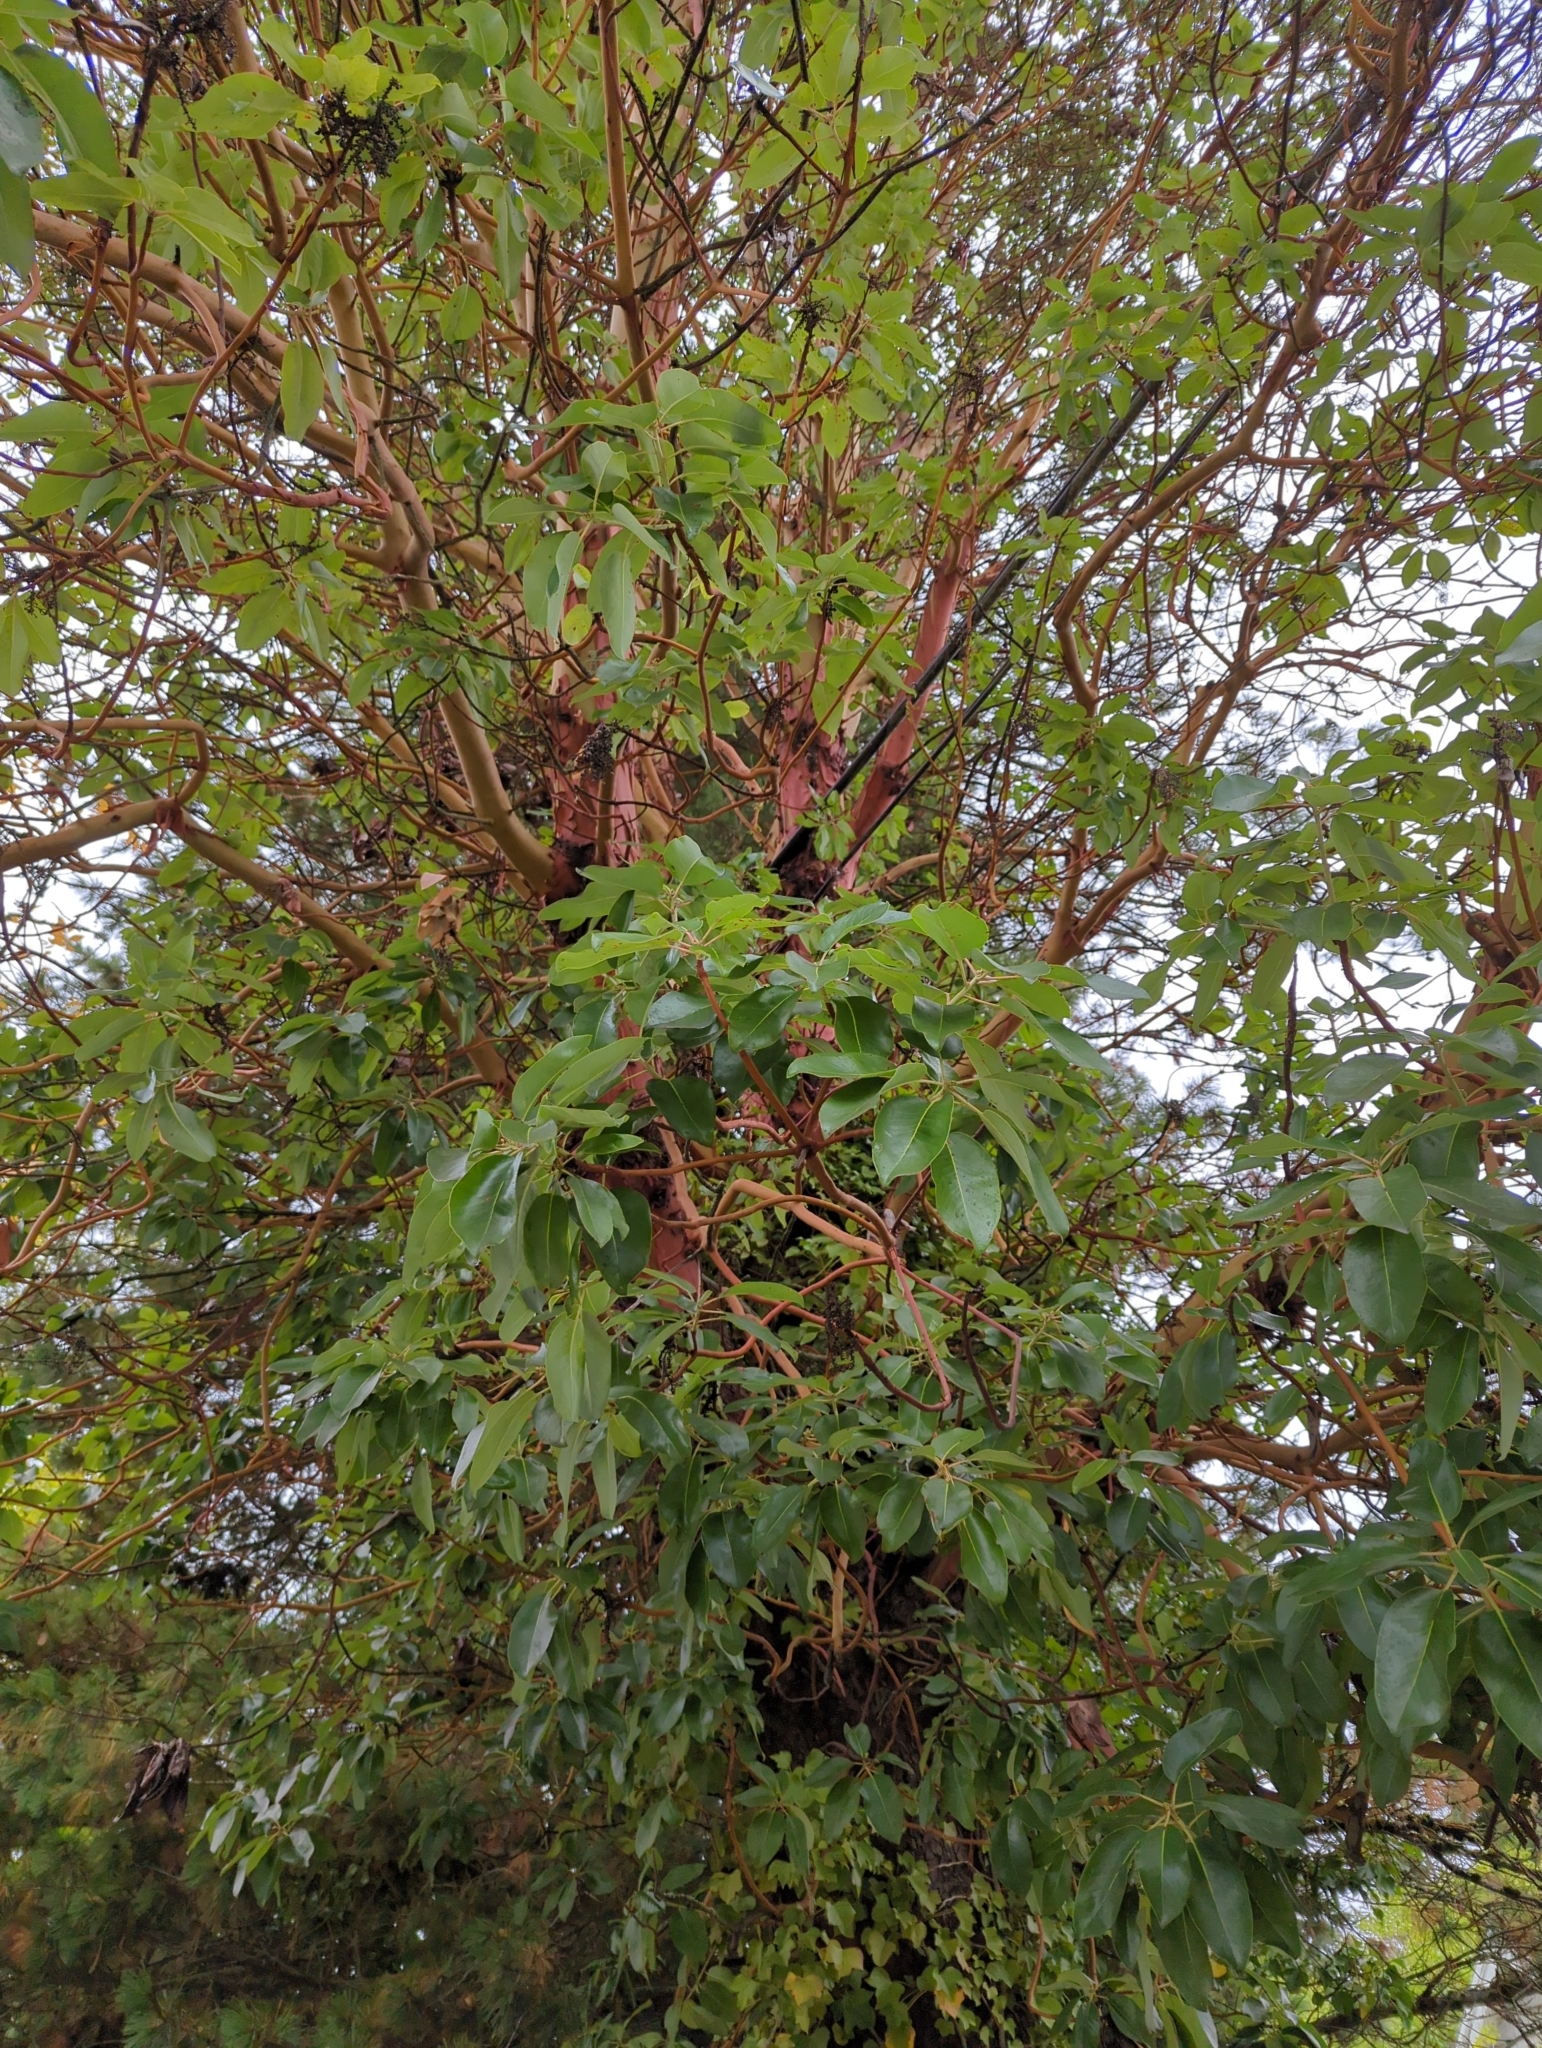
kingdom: Plantae
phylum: Tracheophyta
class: Magnoliopsida
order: Ericales
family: Ericaceae
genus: Arbutus
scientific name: Arbutus menziesii
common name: Pacific madrone
